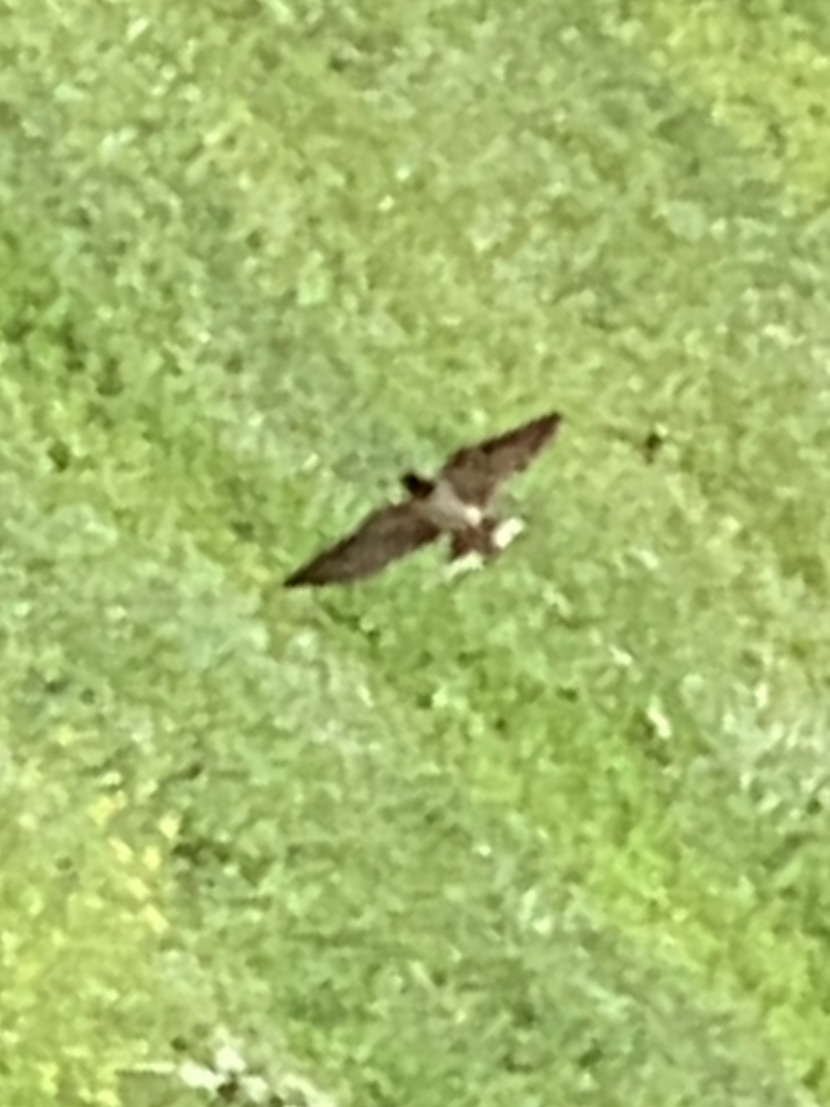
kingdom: Animalia
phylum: Chordata
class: Aves
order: Passeriformes
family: Hirundinidae
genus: Hirundo
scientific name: Hirundo rustica
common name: Barn swallow
